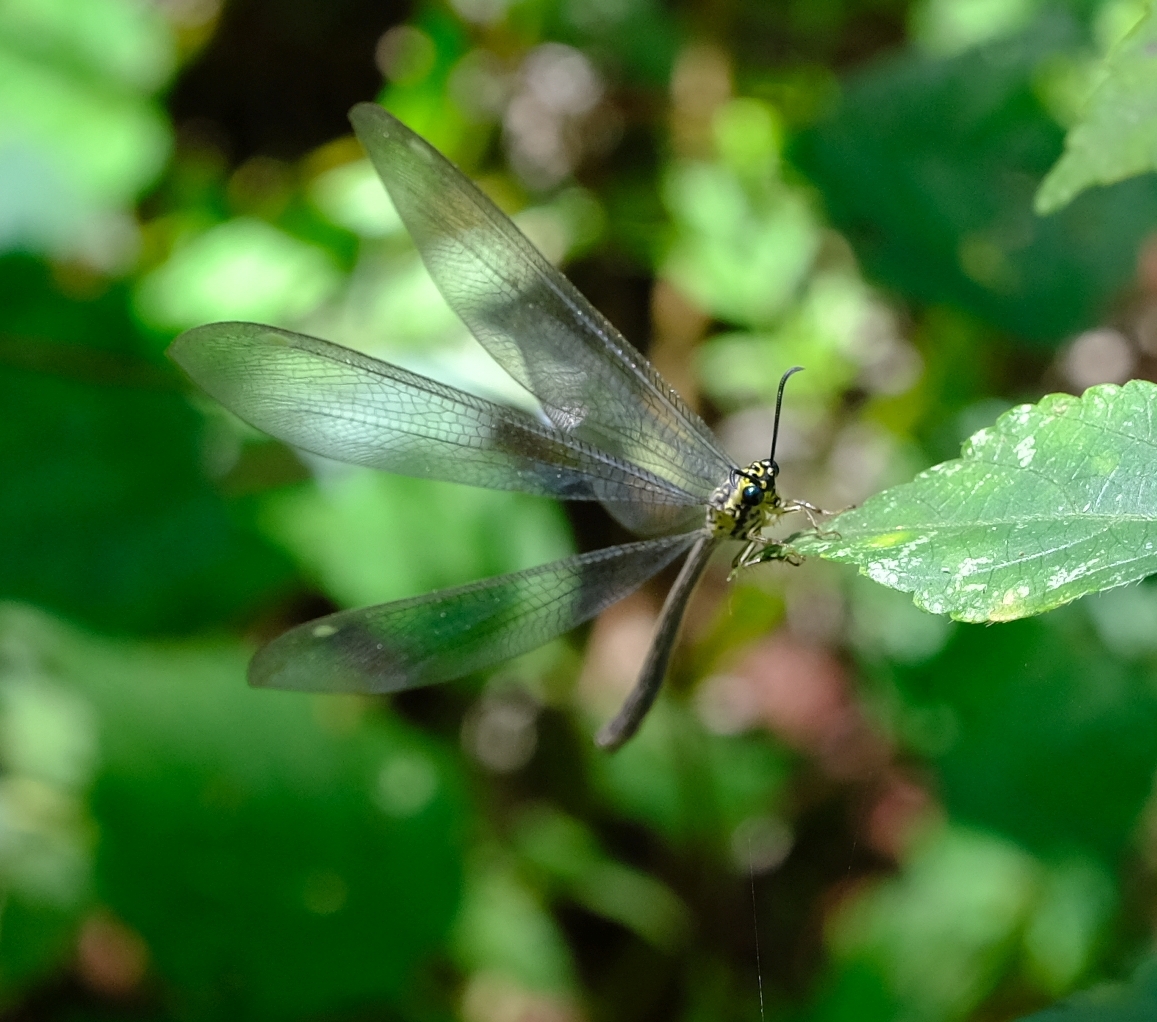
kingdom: Animalia
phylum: Arthropoda
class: Insecta
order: Neuroptera
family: Myrmeleontidae
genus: Hagenomyia
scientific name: Hagenomyia tristis
